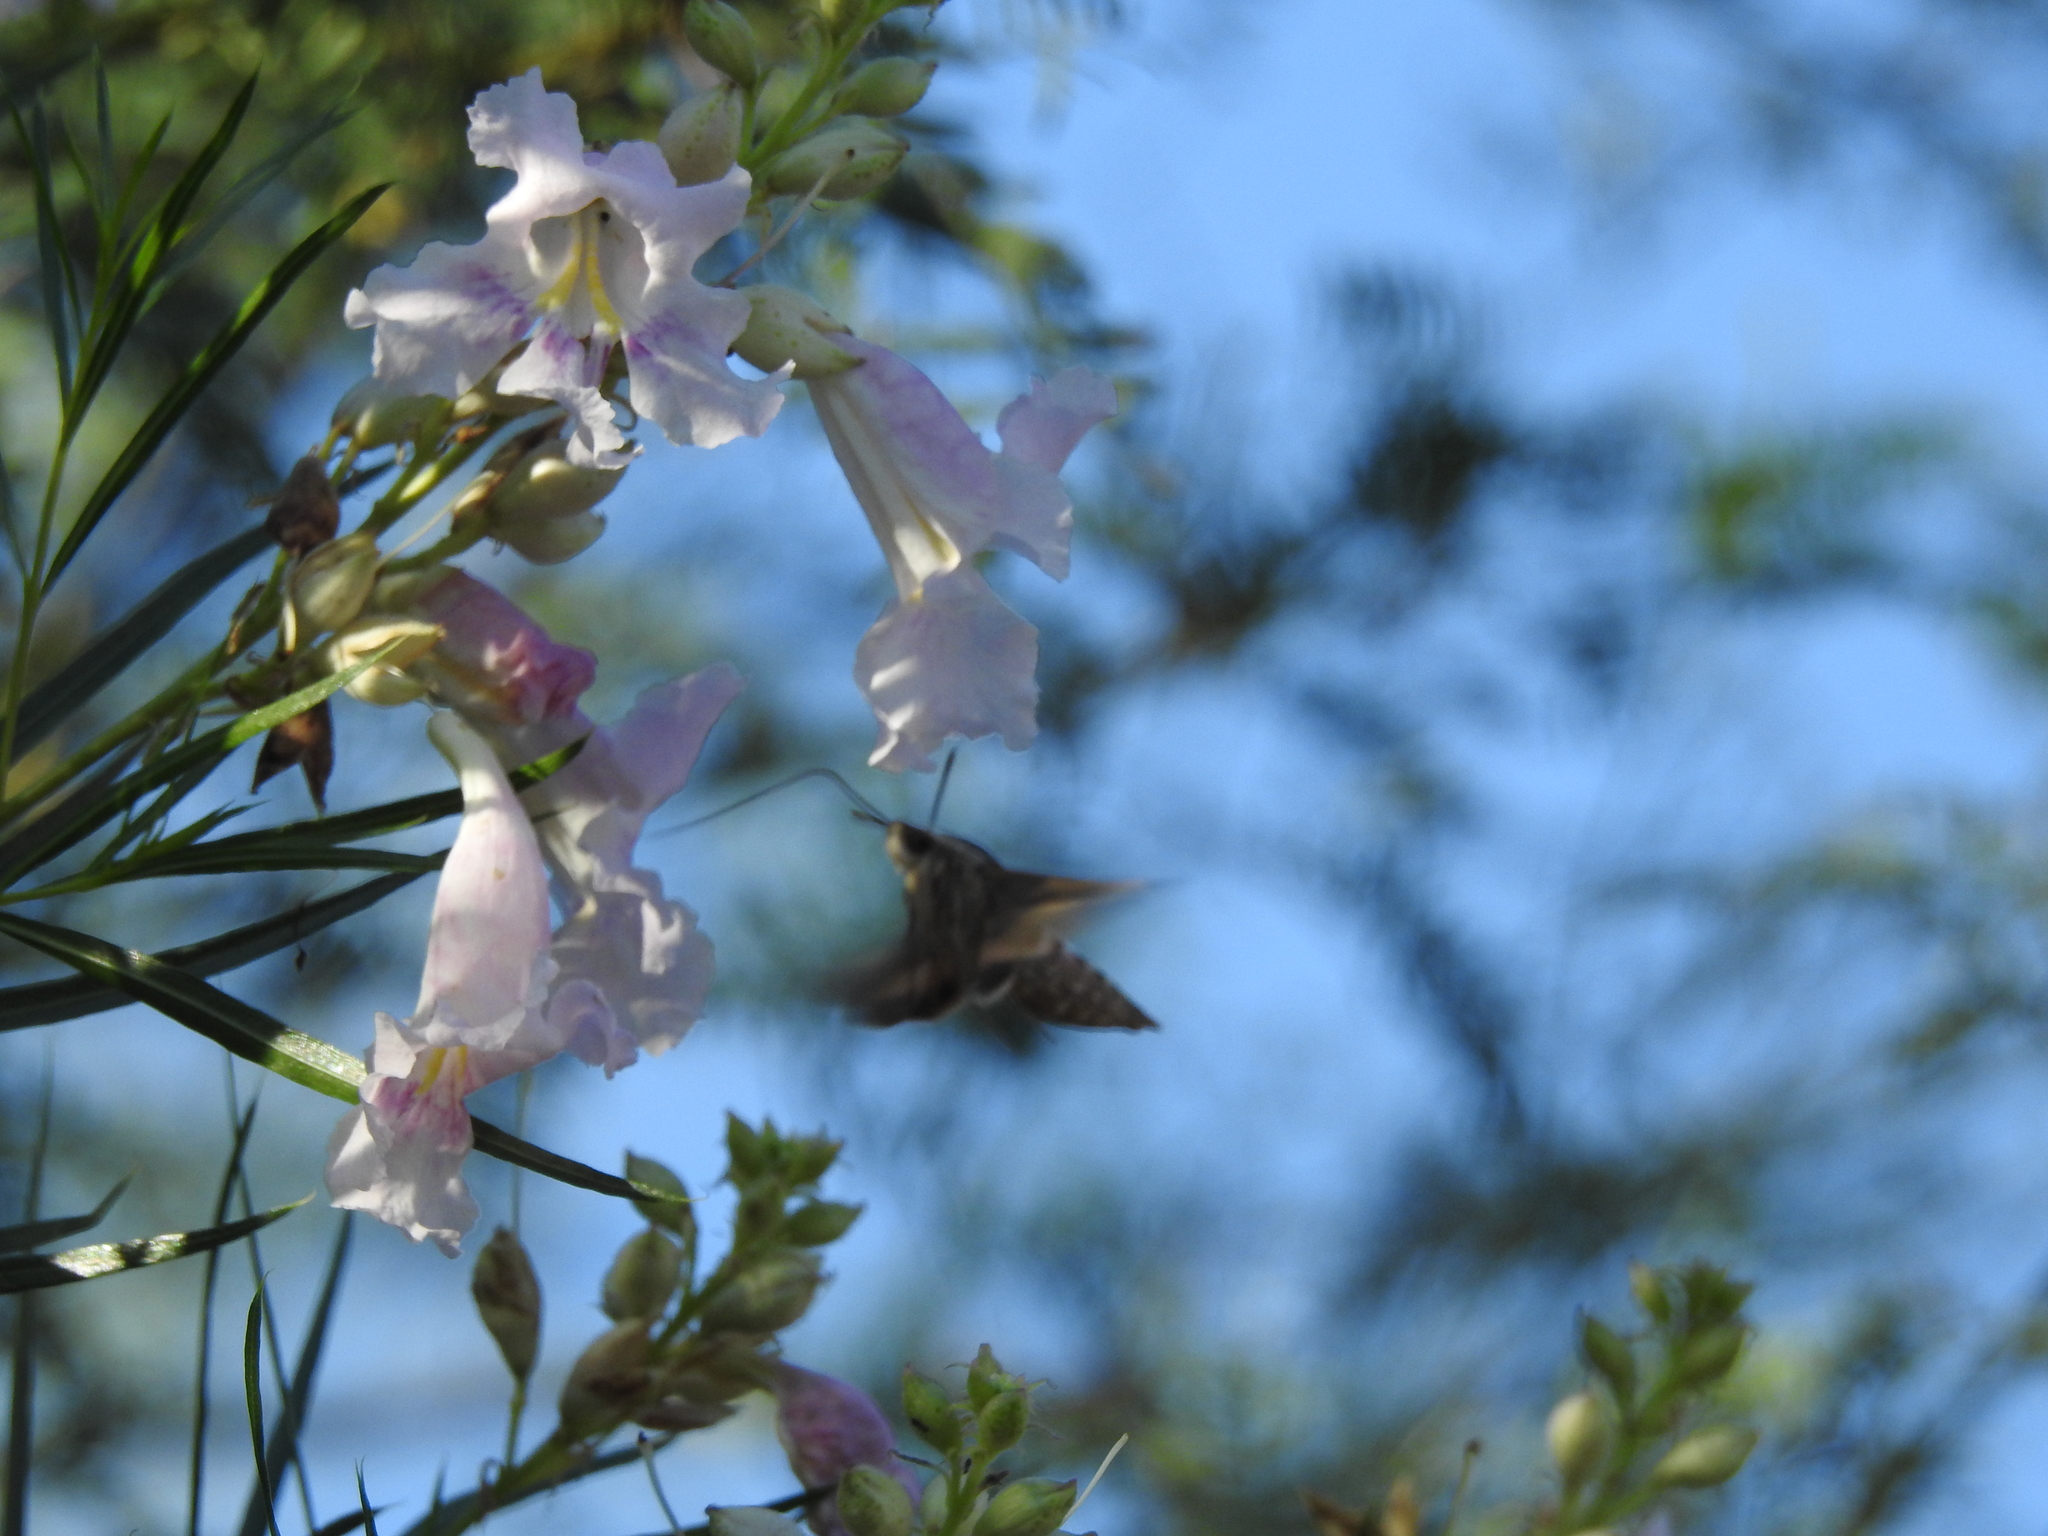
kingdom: Animalia
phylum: Arthropoda
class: Insecta
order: Lepidoptera
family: Sphingidae
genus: Hyles
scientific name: Hyles lineata
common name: White-lined sphinx
